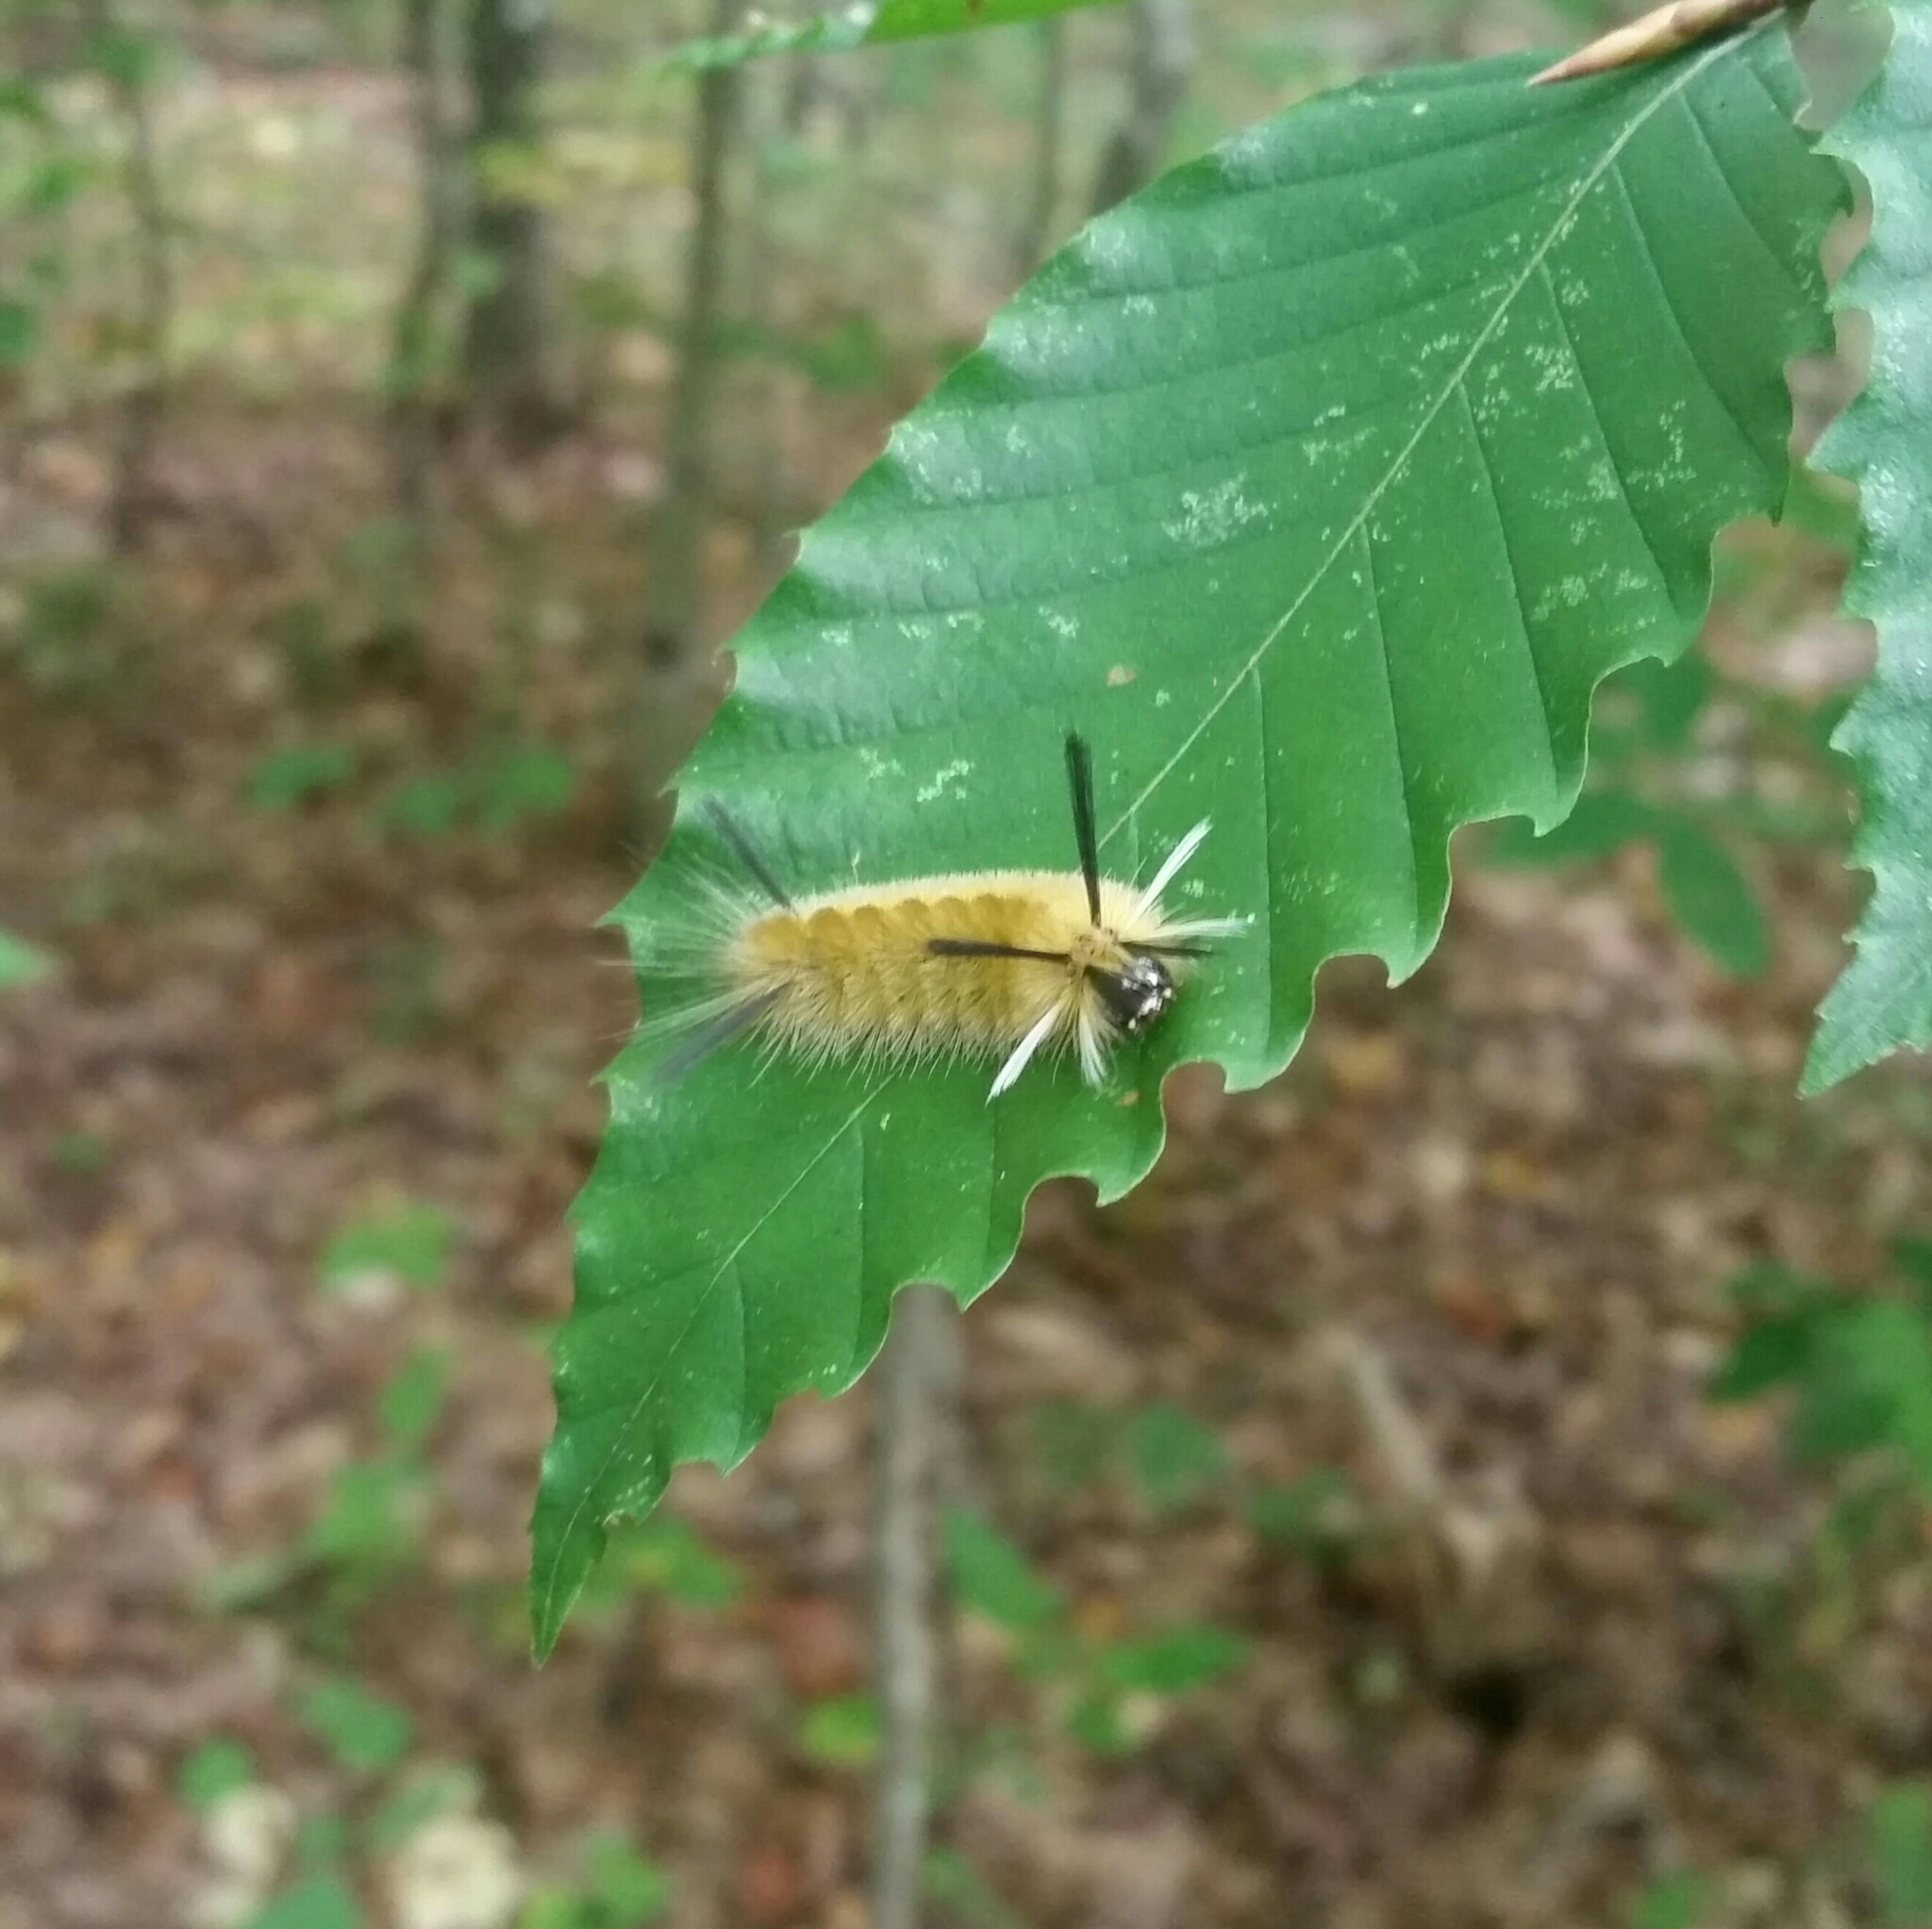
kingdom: Animalia
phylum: Arthropoda
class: Insecta
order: Lepidoptera
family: Erebidae
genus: Halysidota
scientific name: Halysidota tessellaris
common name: Banded tussock moth
